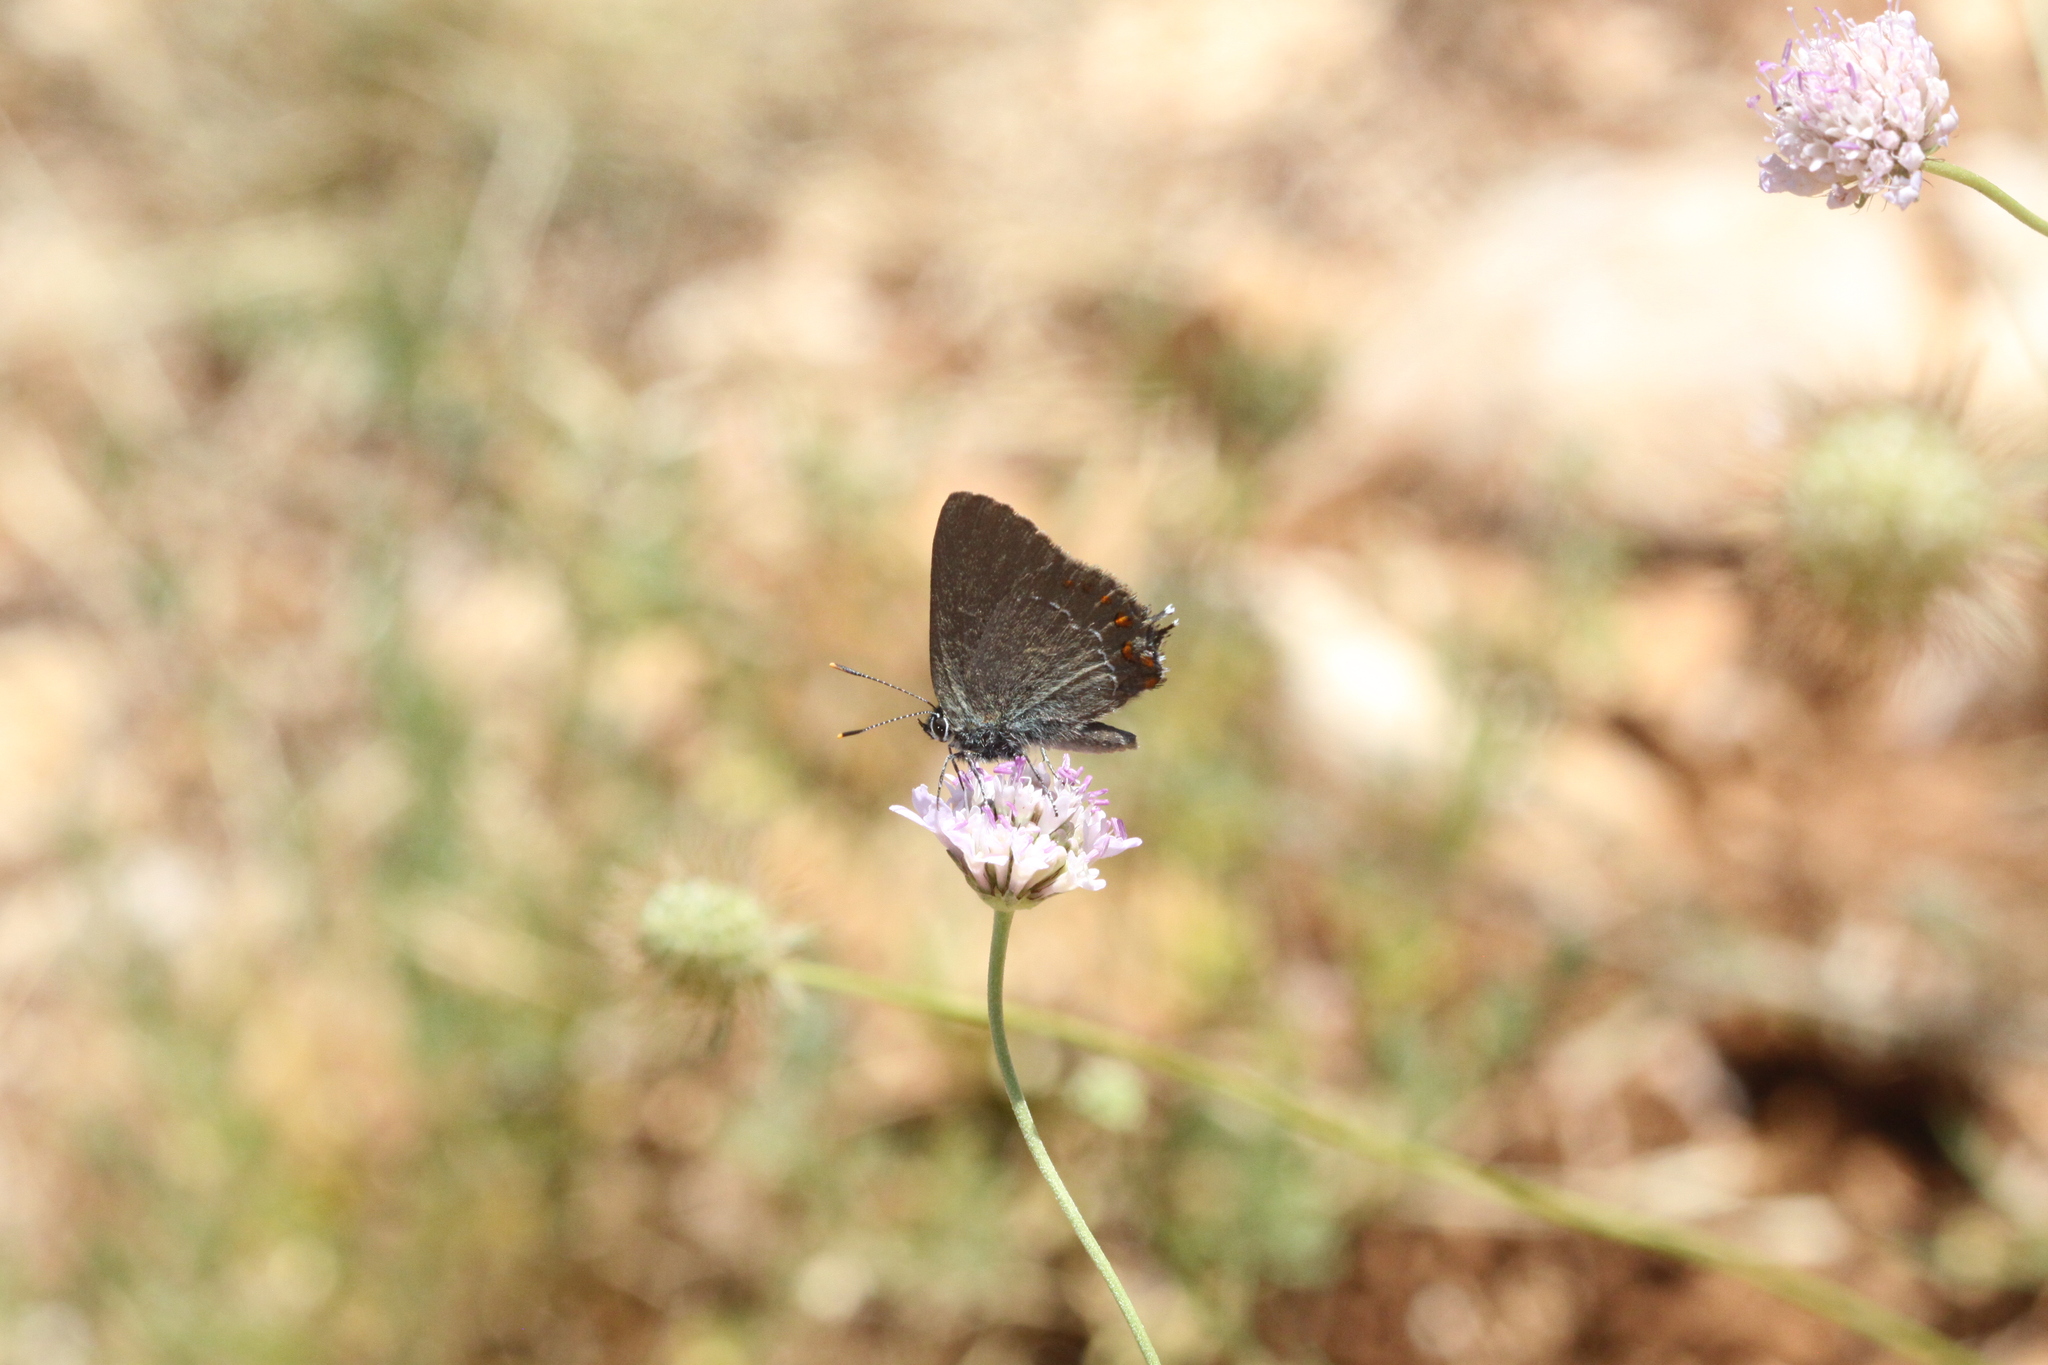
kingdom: Animalia
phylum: Arthropoda
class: Insecta
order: Lepidoptera
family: Lycaenidae
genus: Fixsenia
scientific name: Fixsenia esculi
